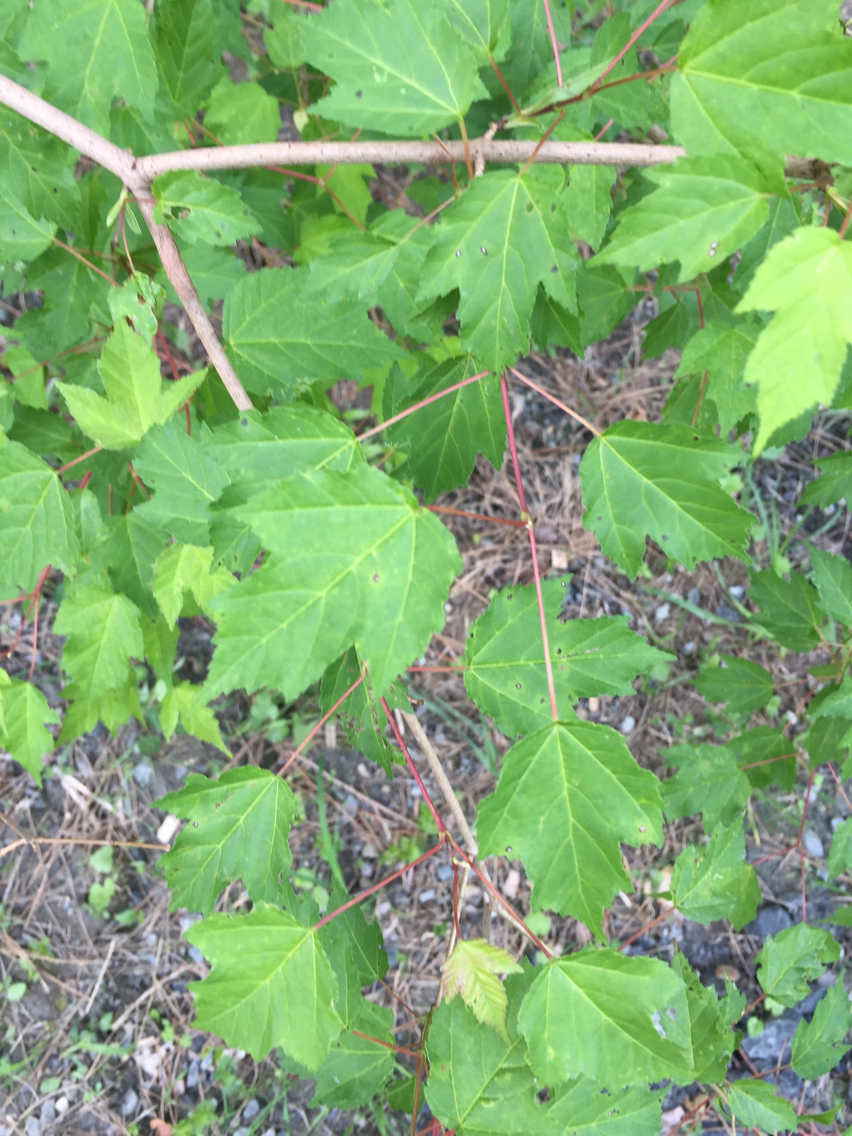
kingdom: Plantae
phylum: Tracheophyta
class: Magnoliopsida
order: Sapindales
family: Sapindaceae
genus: Acer
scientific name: Acer tataricum
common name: Tartar maple
